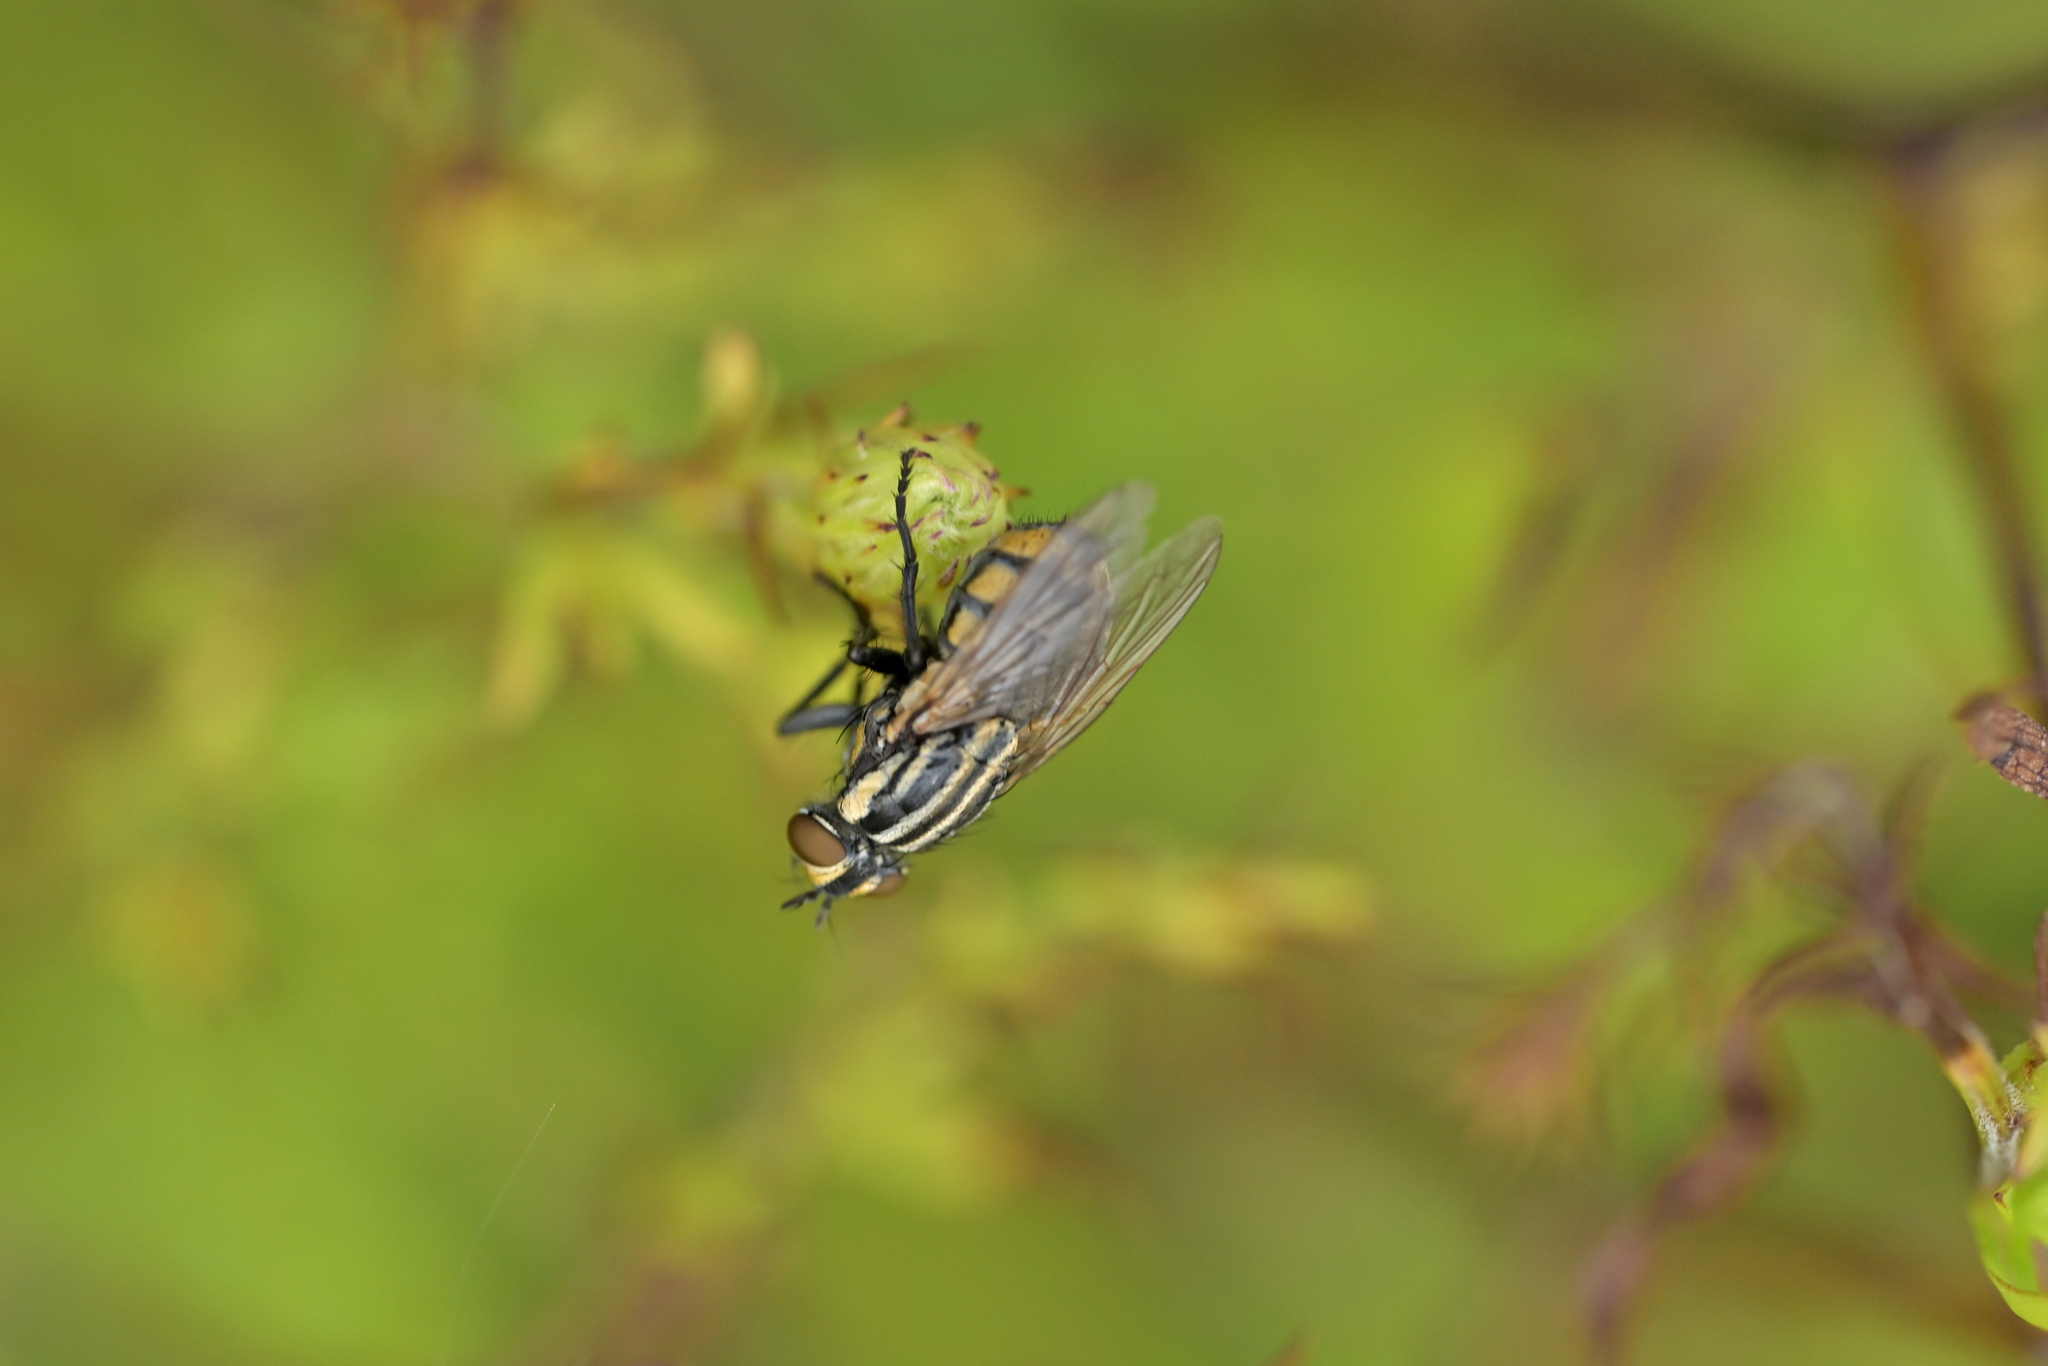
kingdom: Animalia
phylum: Arthropoda
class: Insecta
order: Diptera
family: Sarcophagidae
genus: Oxysarcodexia
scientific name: Oxysarcodexia varia
